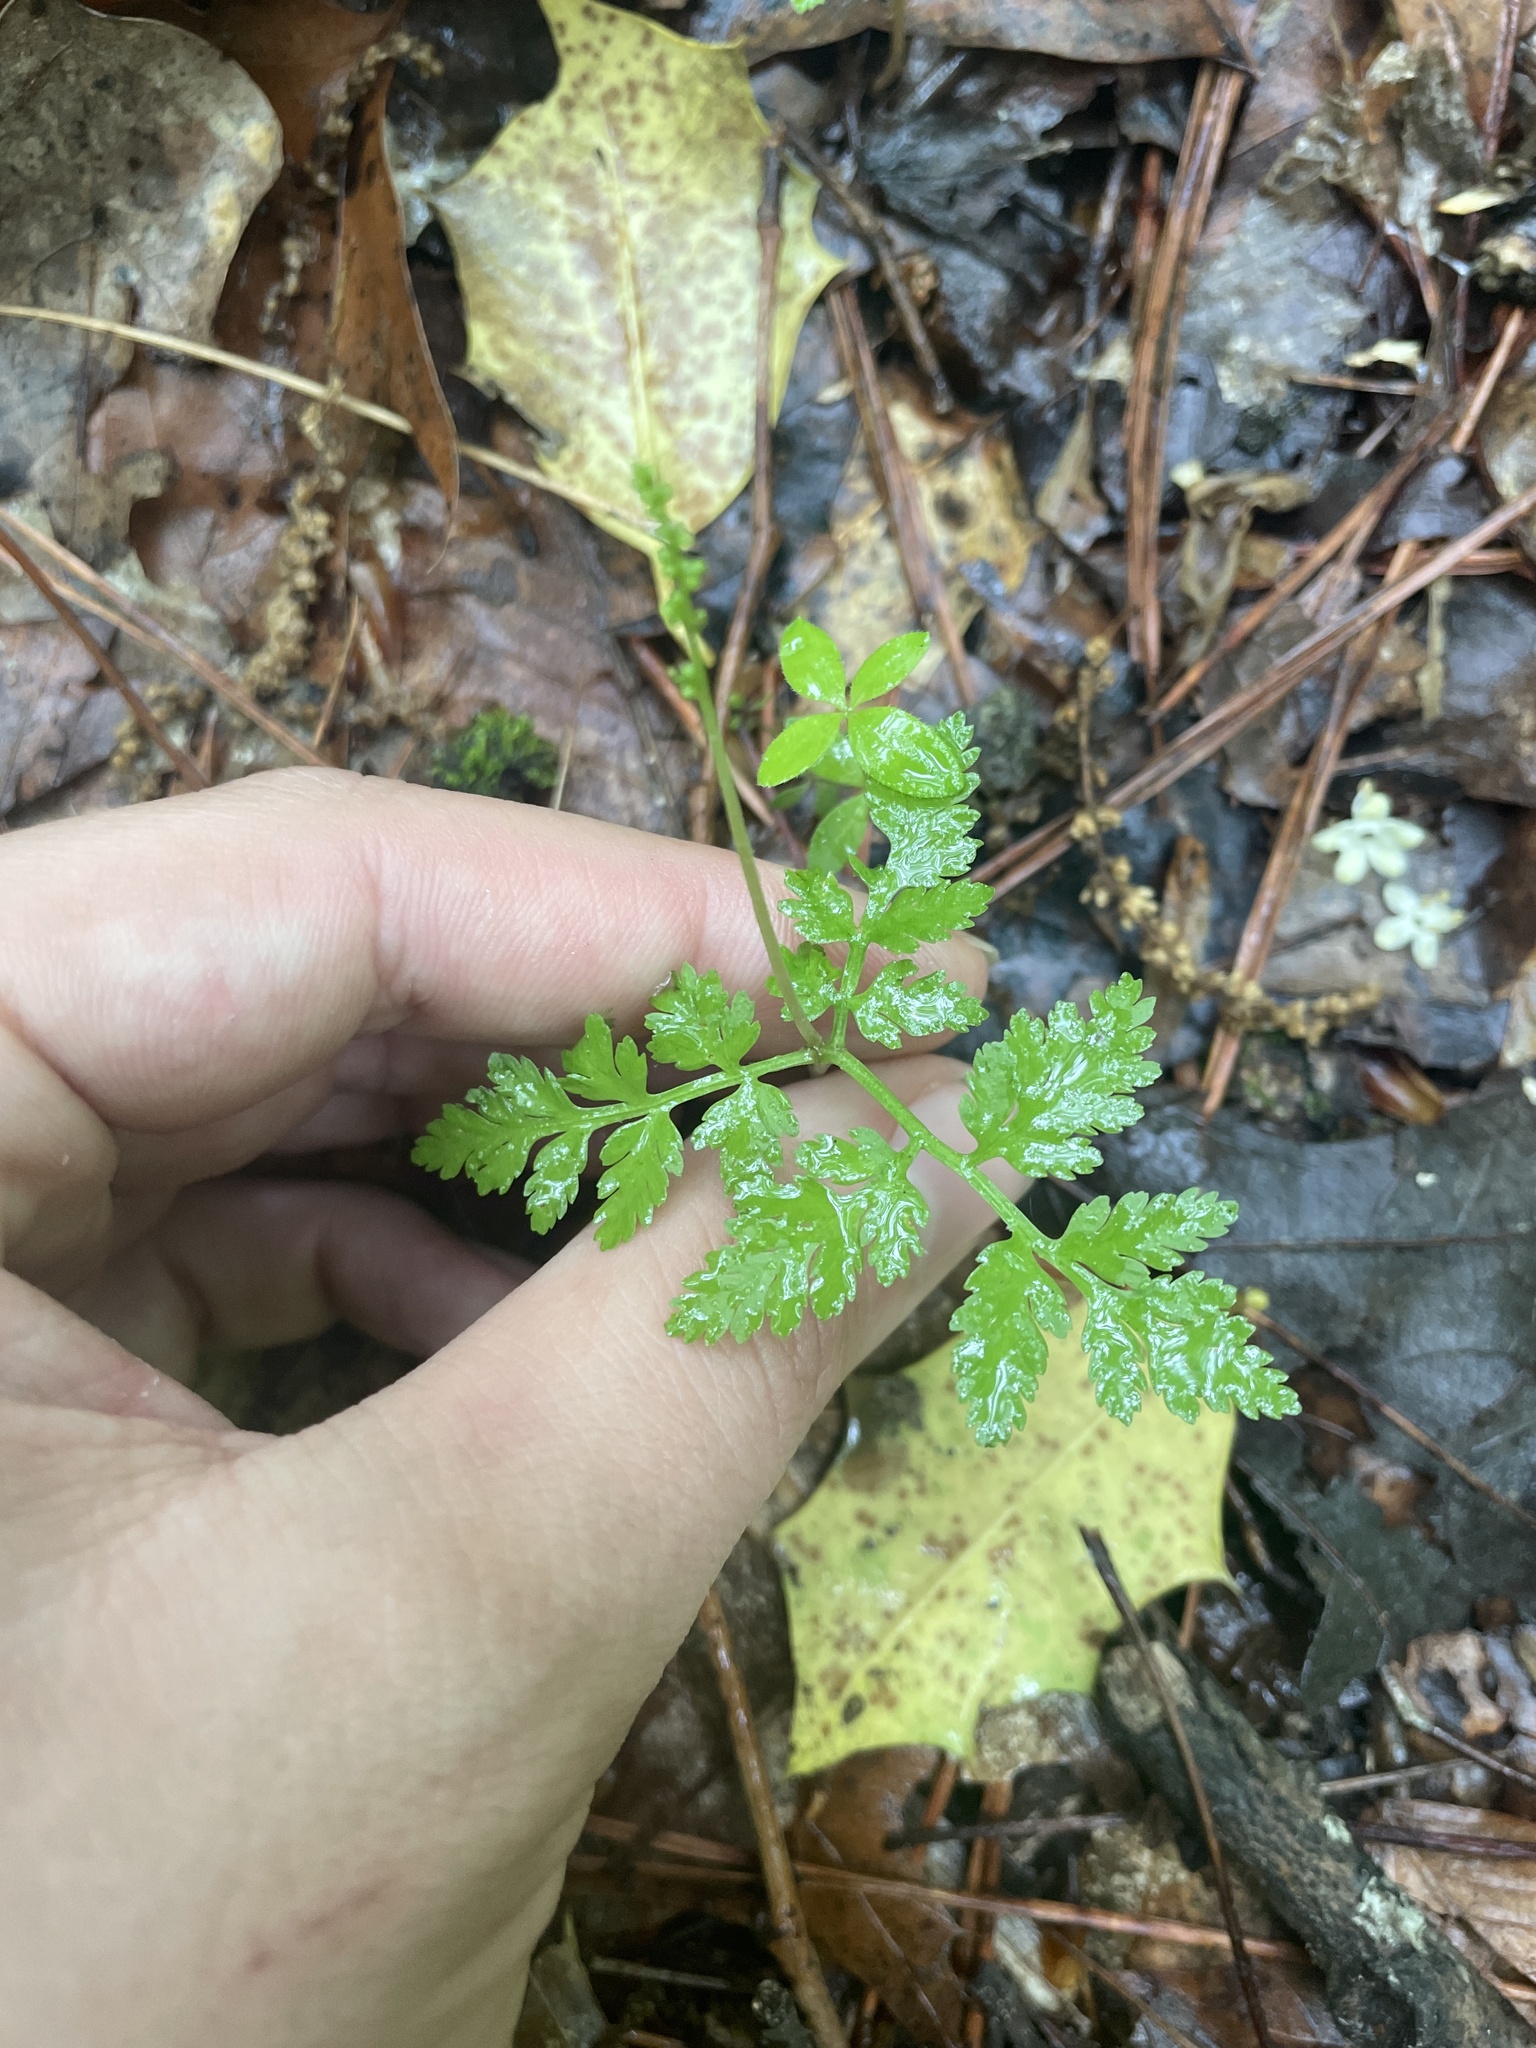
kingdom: Plantae
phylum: Tracheophyta
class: Polypodiopsida
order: Ophioglossales
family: Ophioglossaceae
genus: Botrypus
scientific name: Botrypus virginianus
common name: Common grapefern
